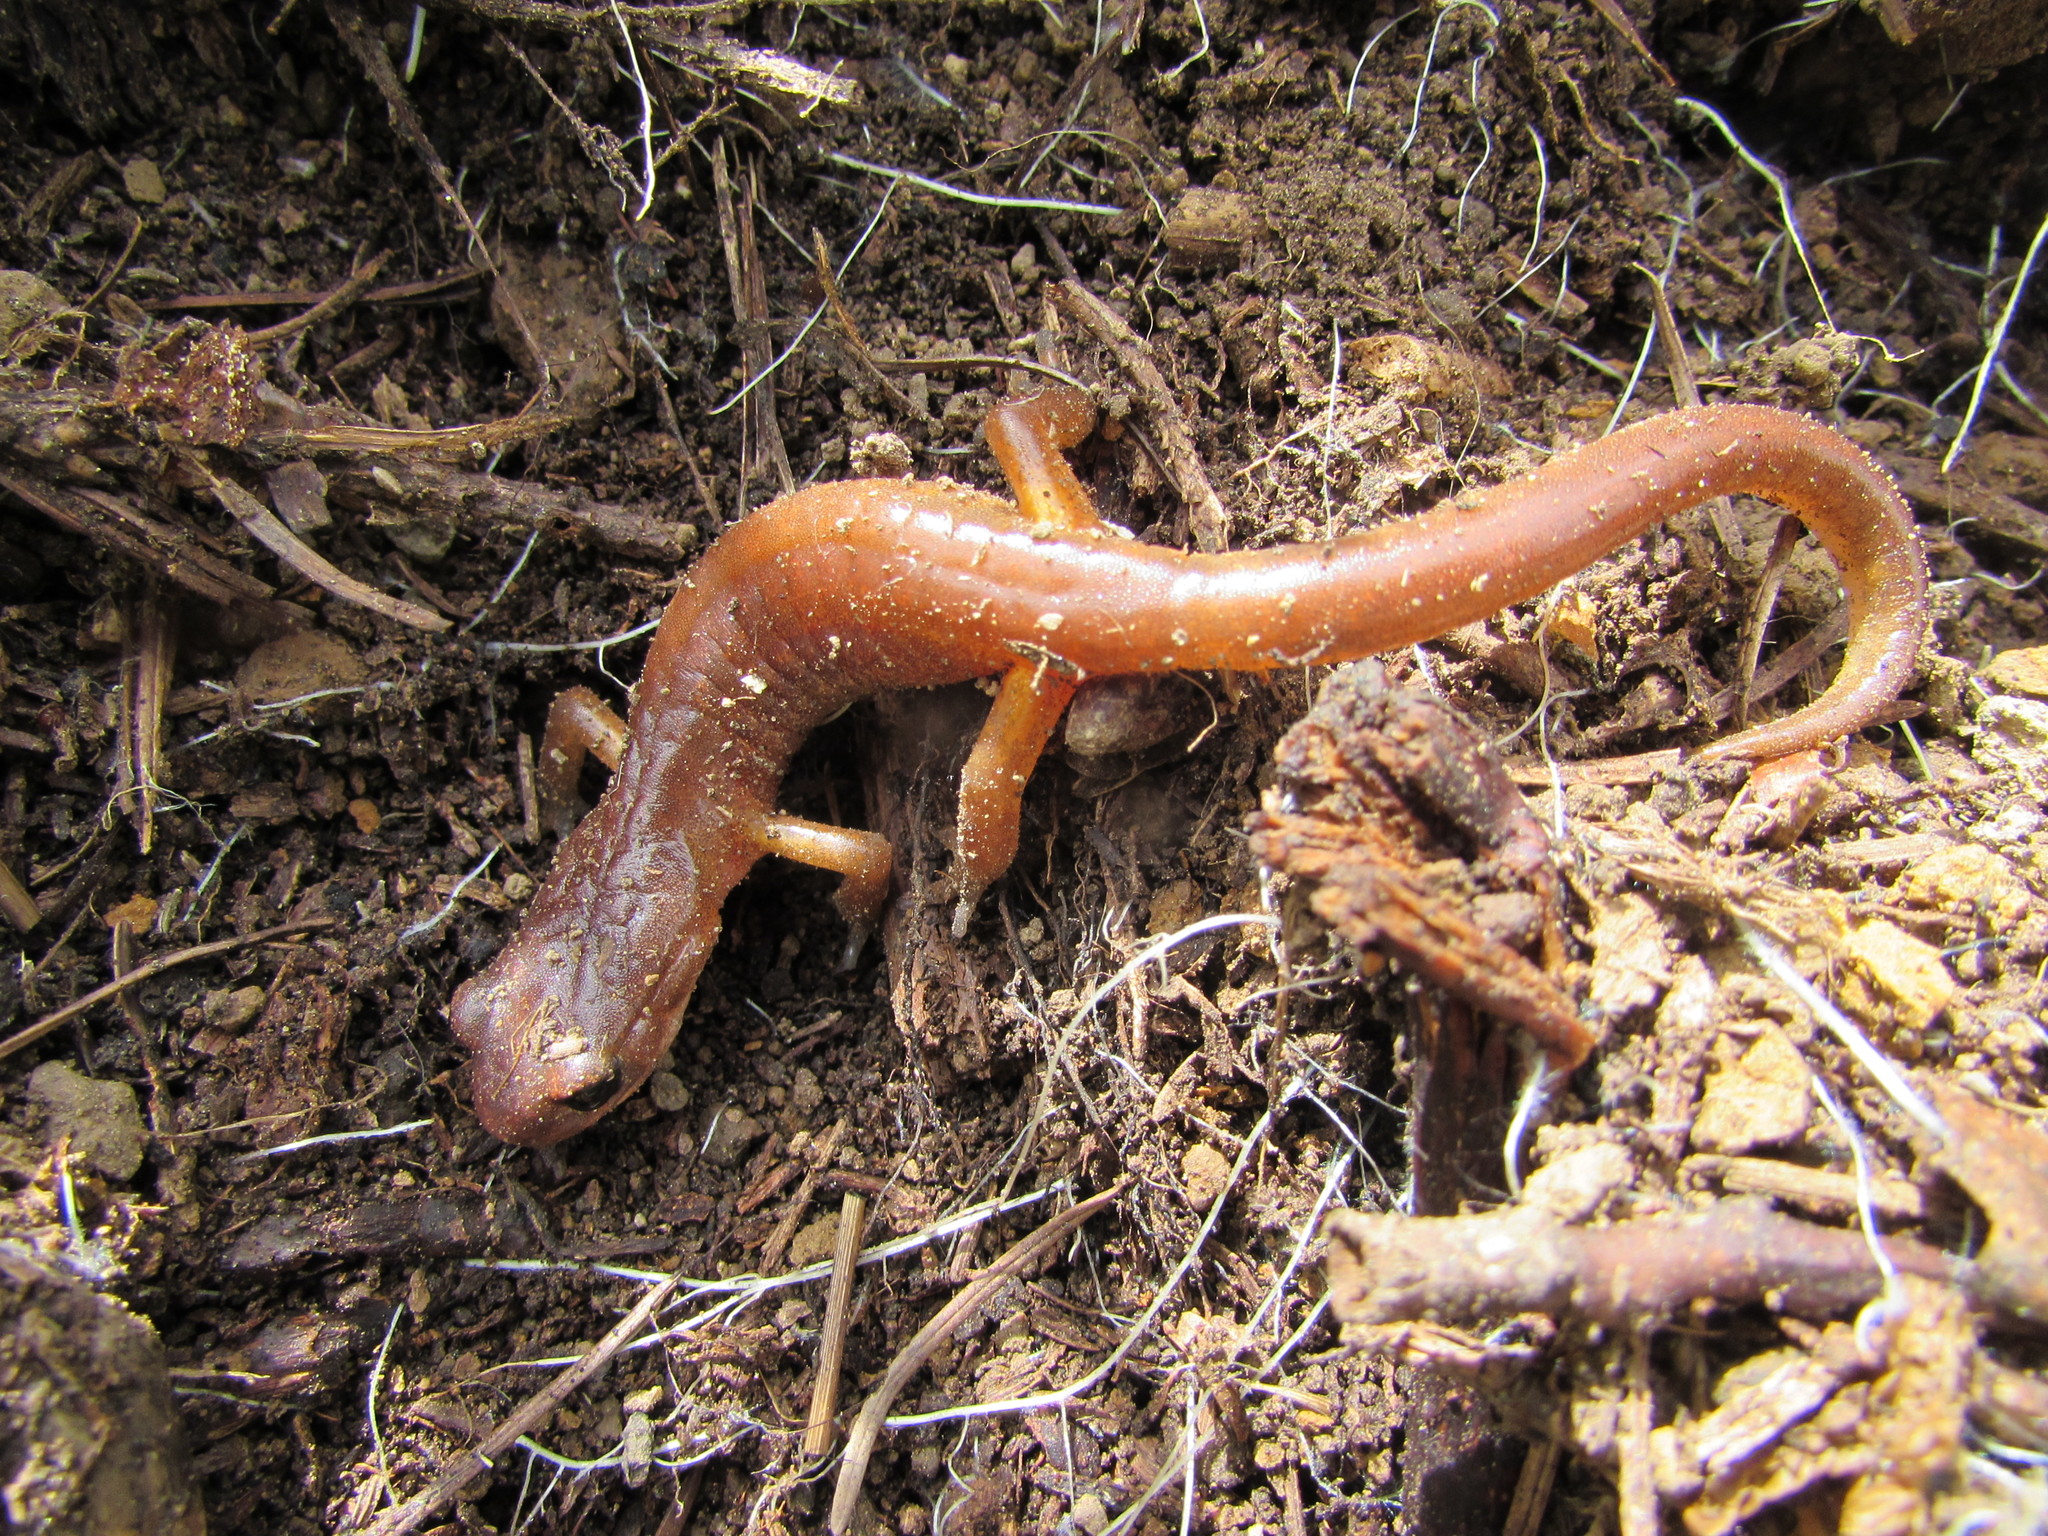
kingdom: Animalia
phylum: Chordata
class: Amphibia
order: Caudata
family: Plethodontidae
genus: Ensatina
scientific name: Ensatina eschscholtzii
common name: Ensatina
